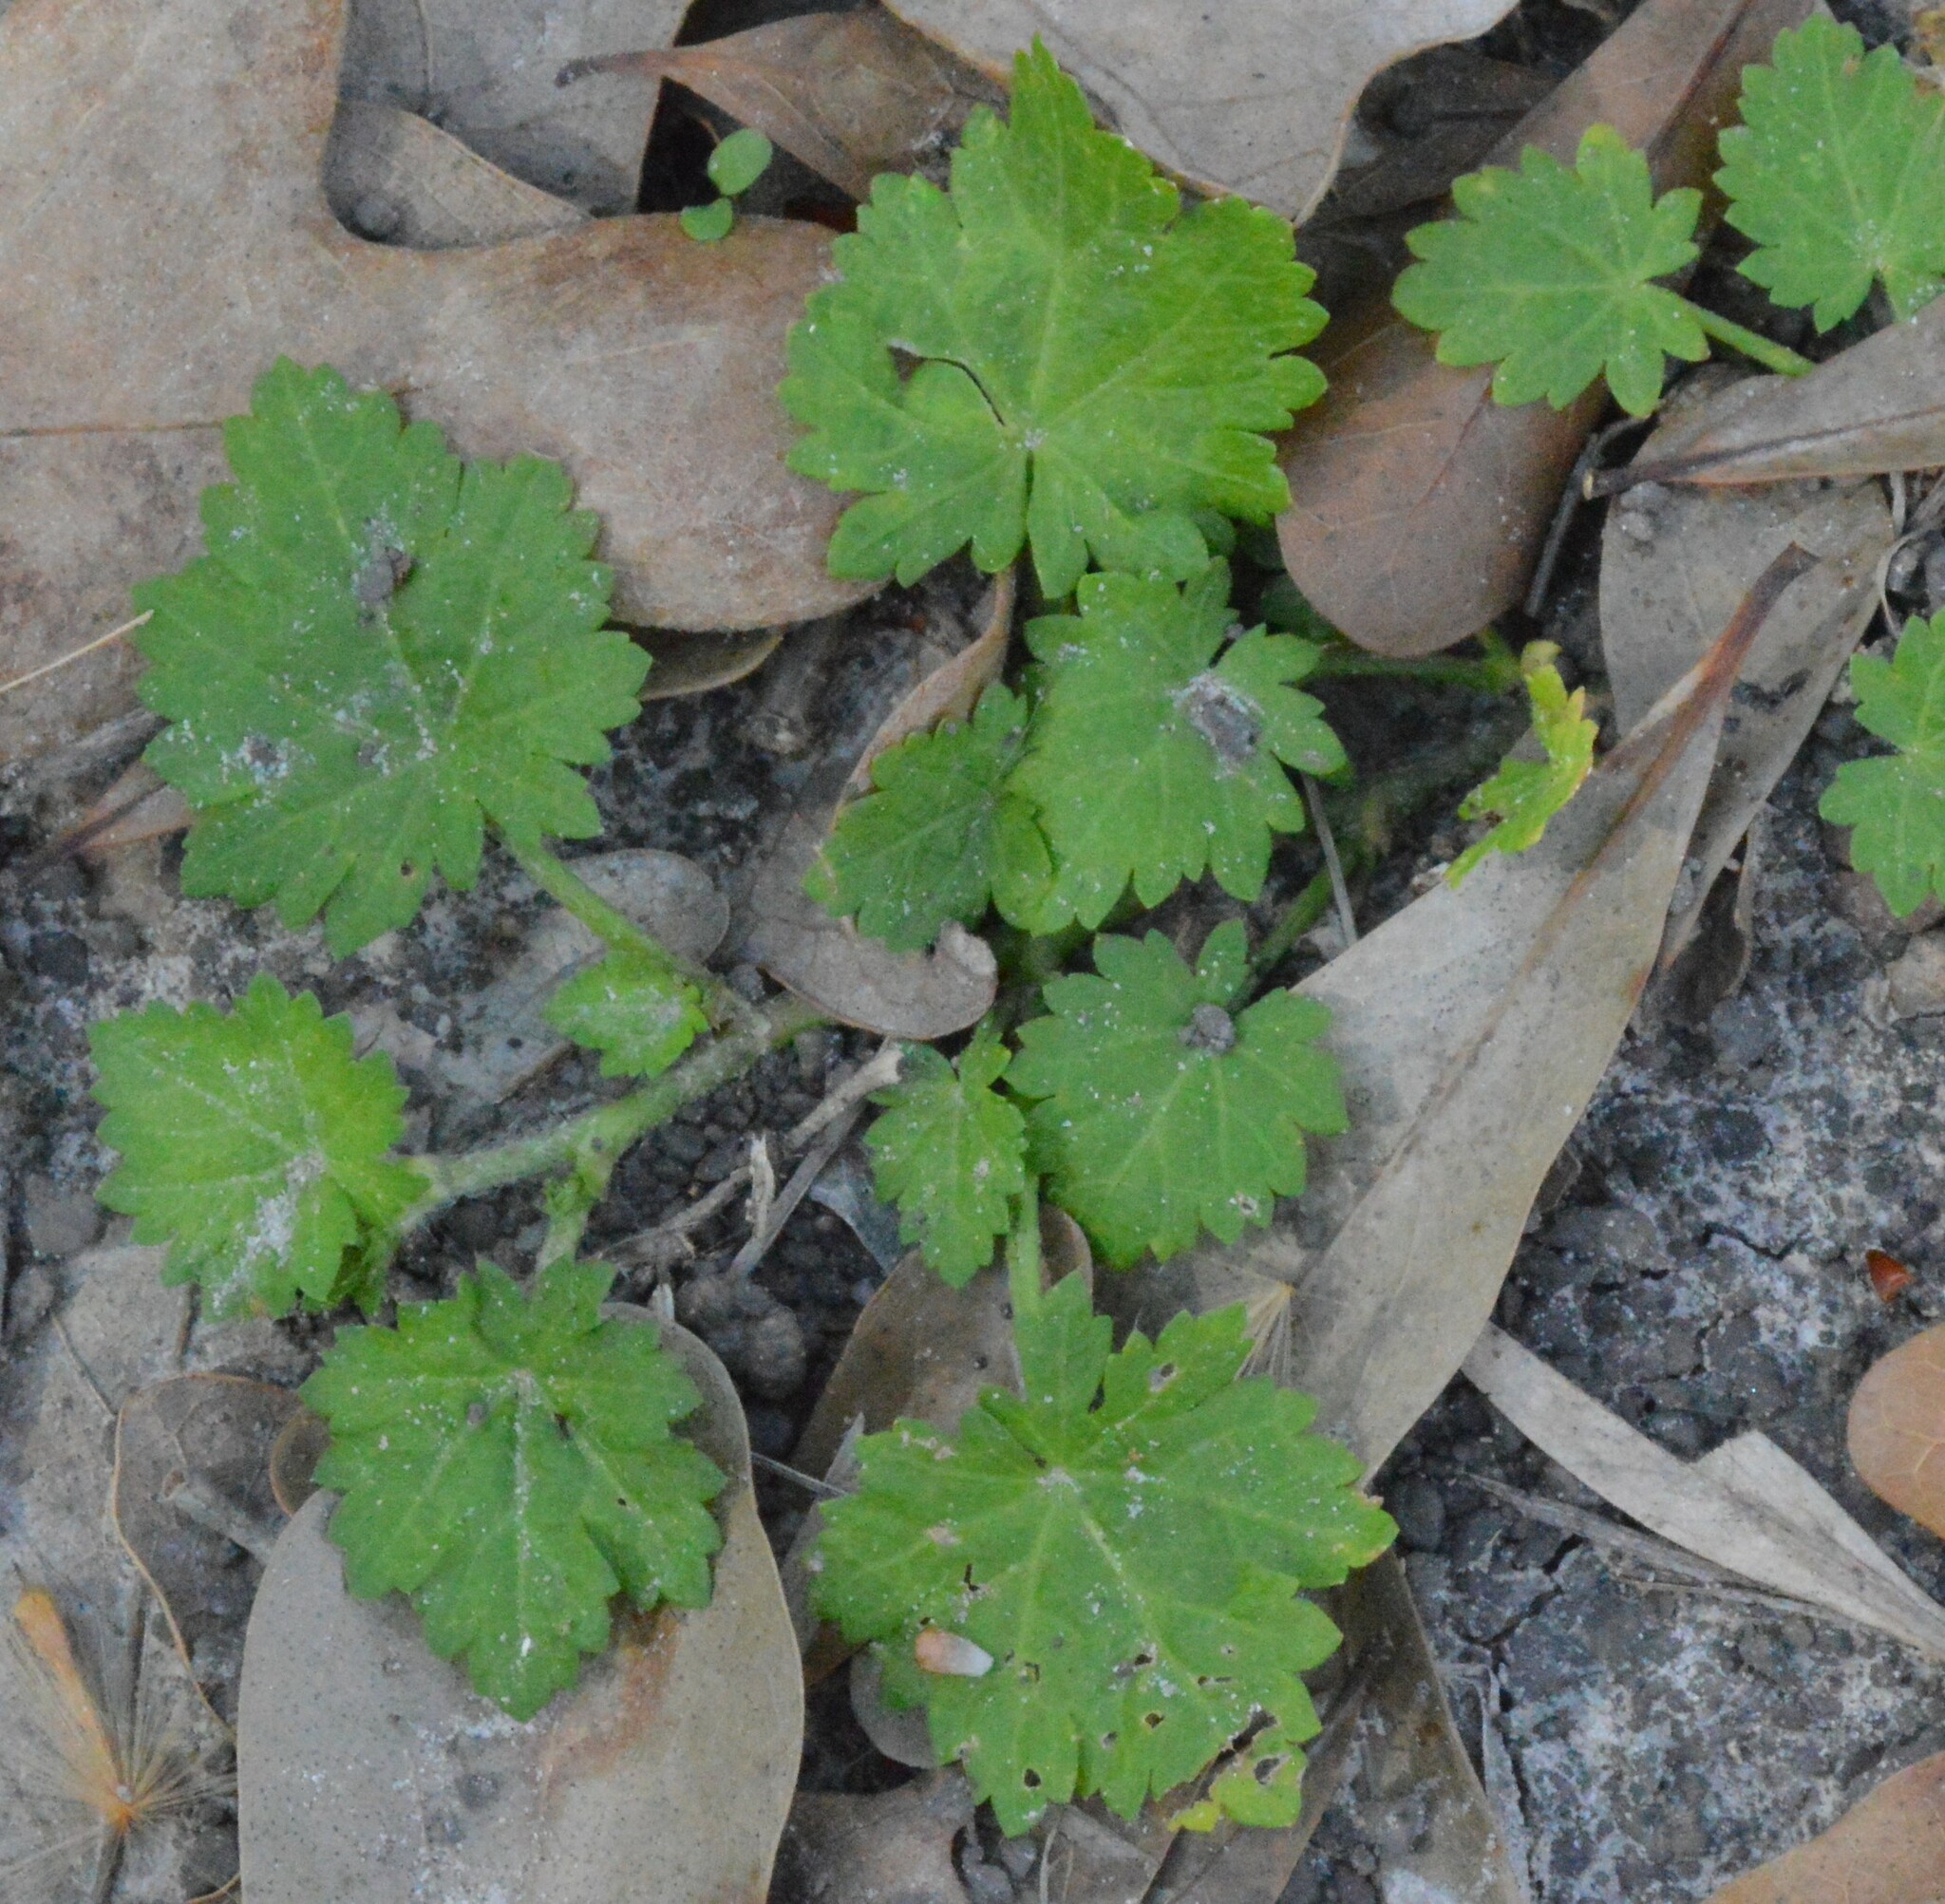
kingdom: Plantae
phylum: Tracheophyta
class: Magnoliopsida
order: Malvales
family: Malvaceae
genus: Modiola
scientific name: Modiola caroliniana
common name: Carolina bristlemallow
